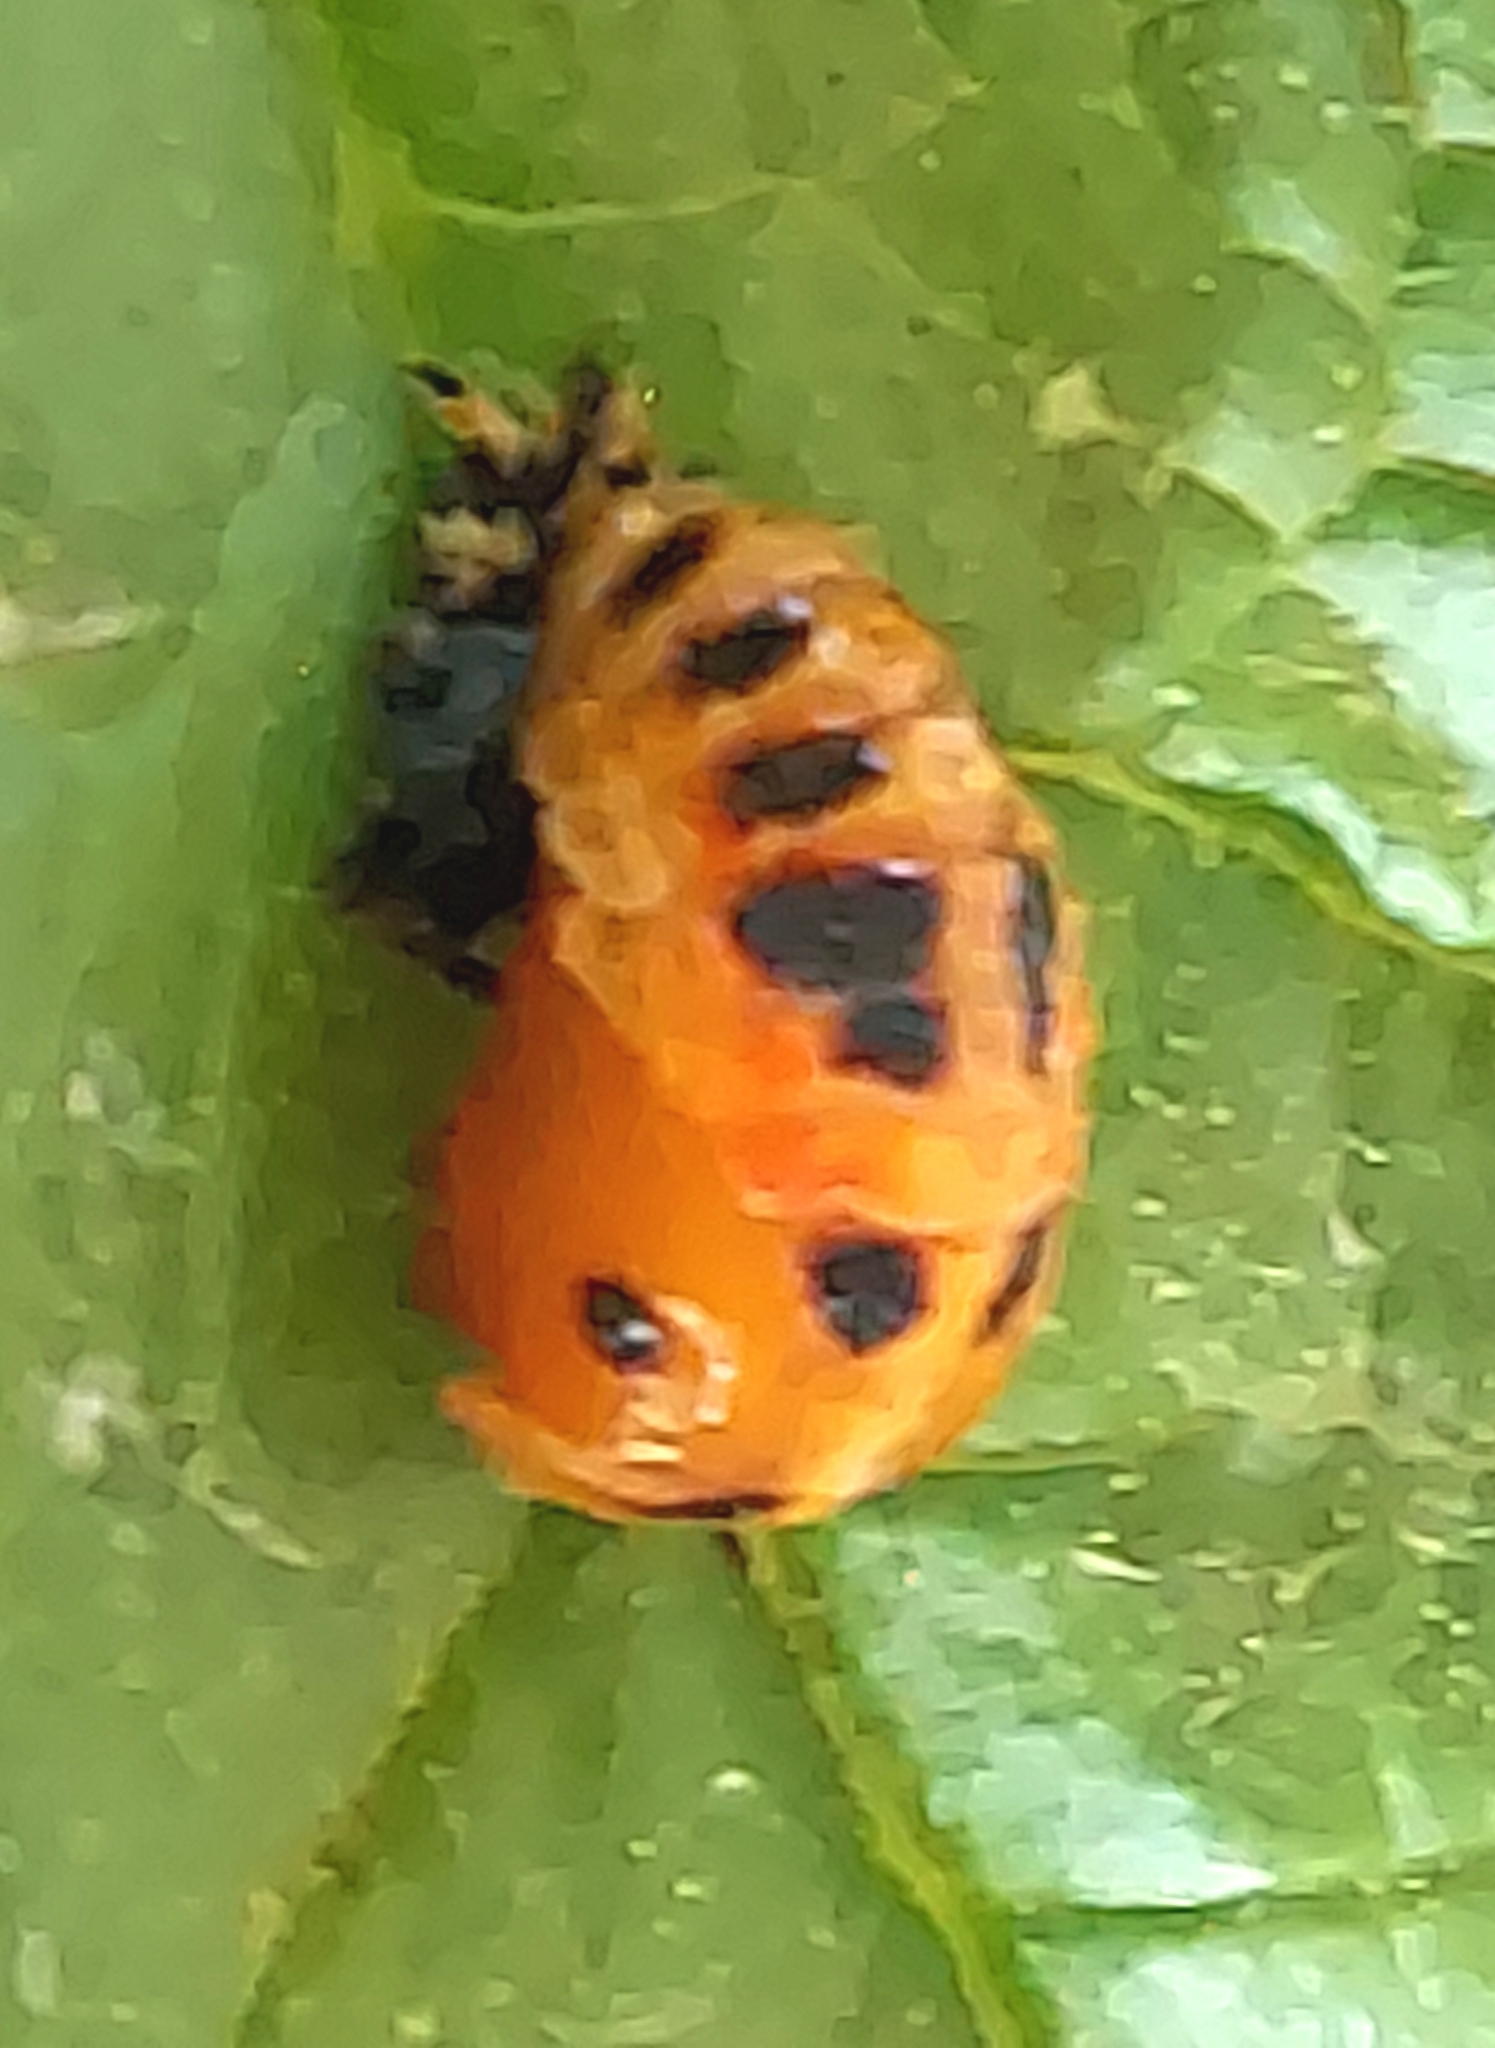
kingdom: Animalia
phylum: Arthropoda
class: Insecta
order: Coleoptera
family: Coccinellidae
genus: Harmonia
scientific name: Harmonia axyridis
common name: Harlequin ladybird
